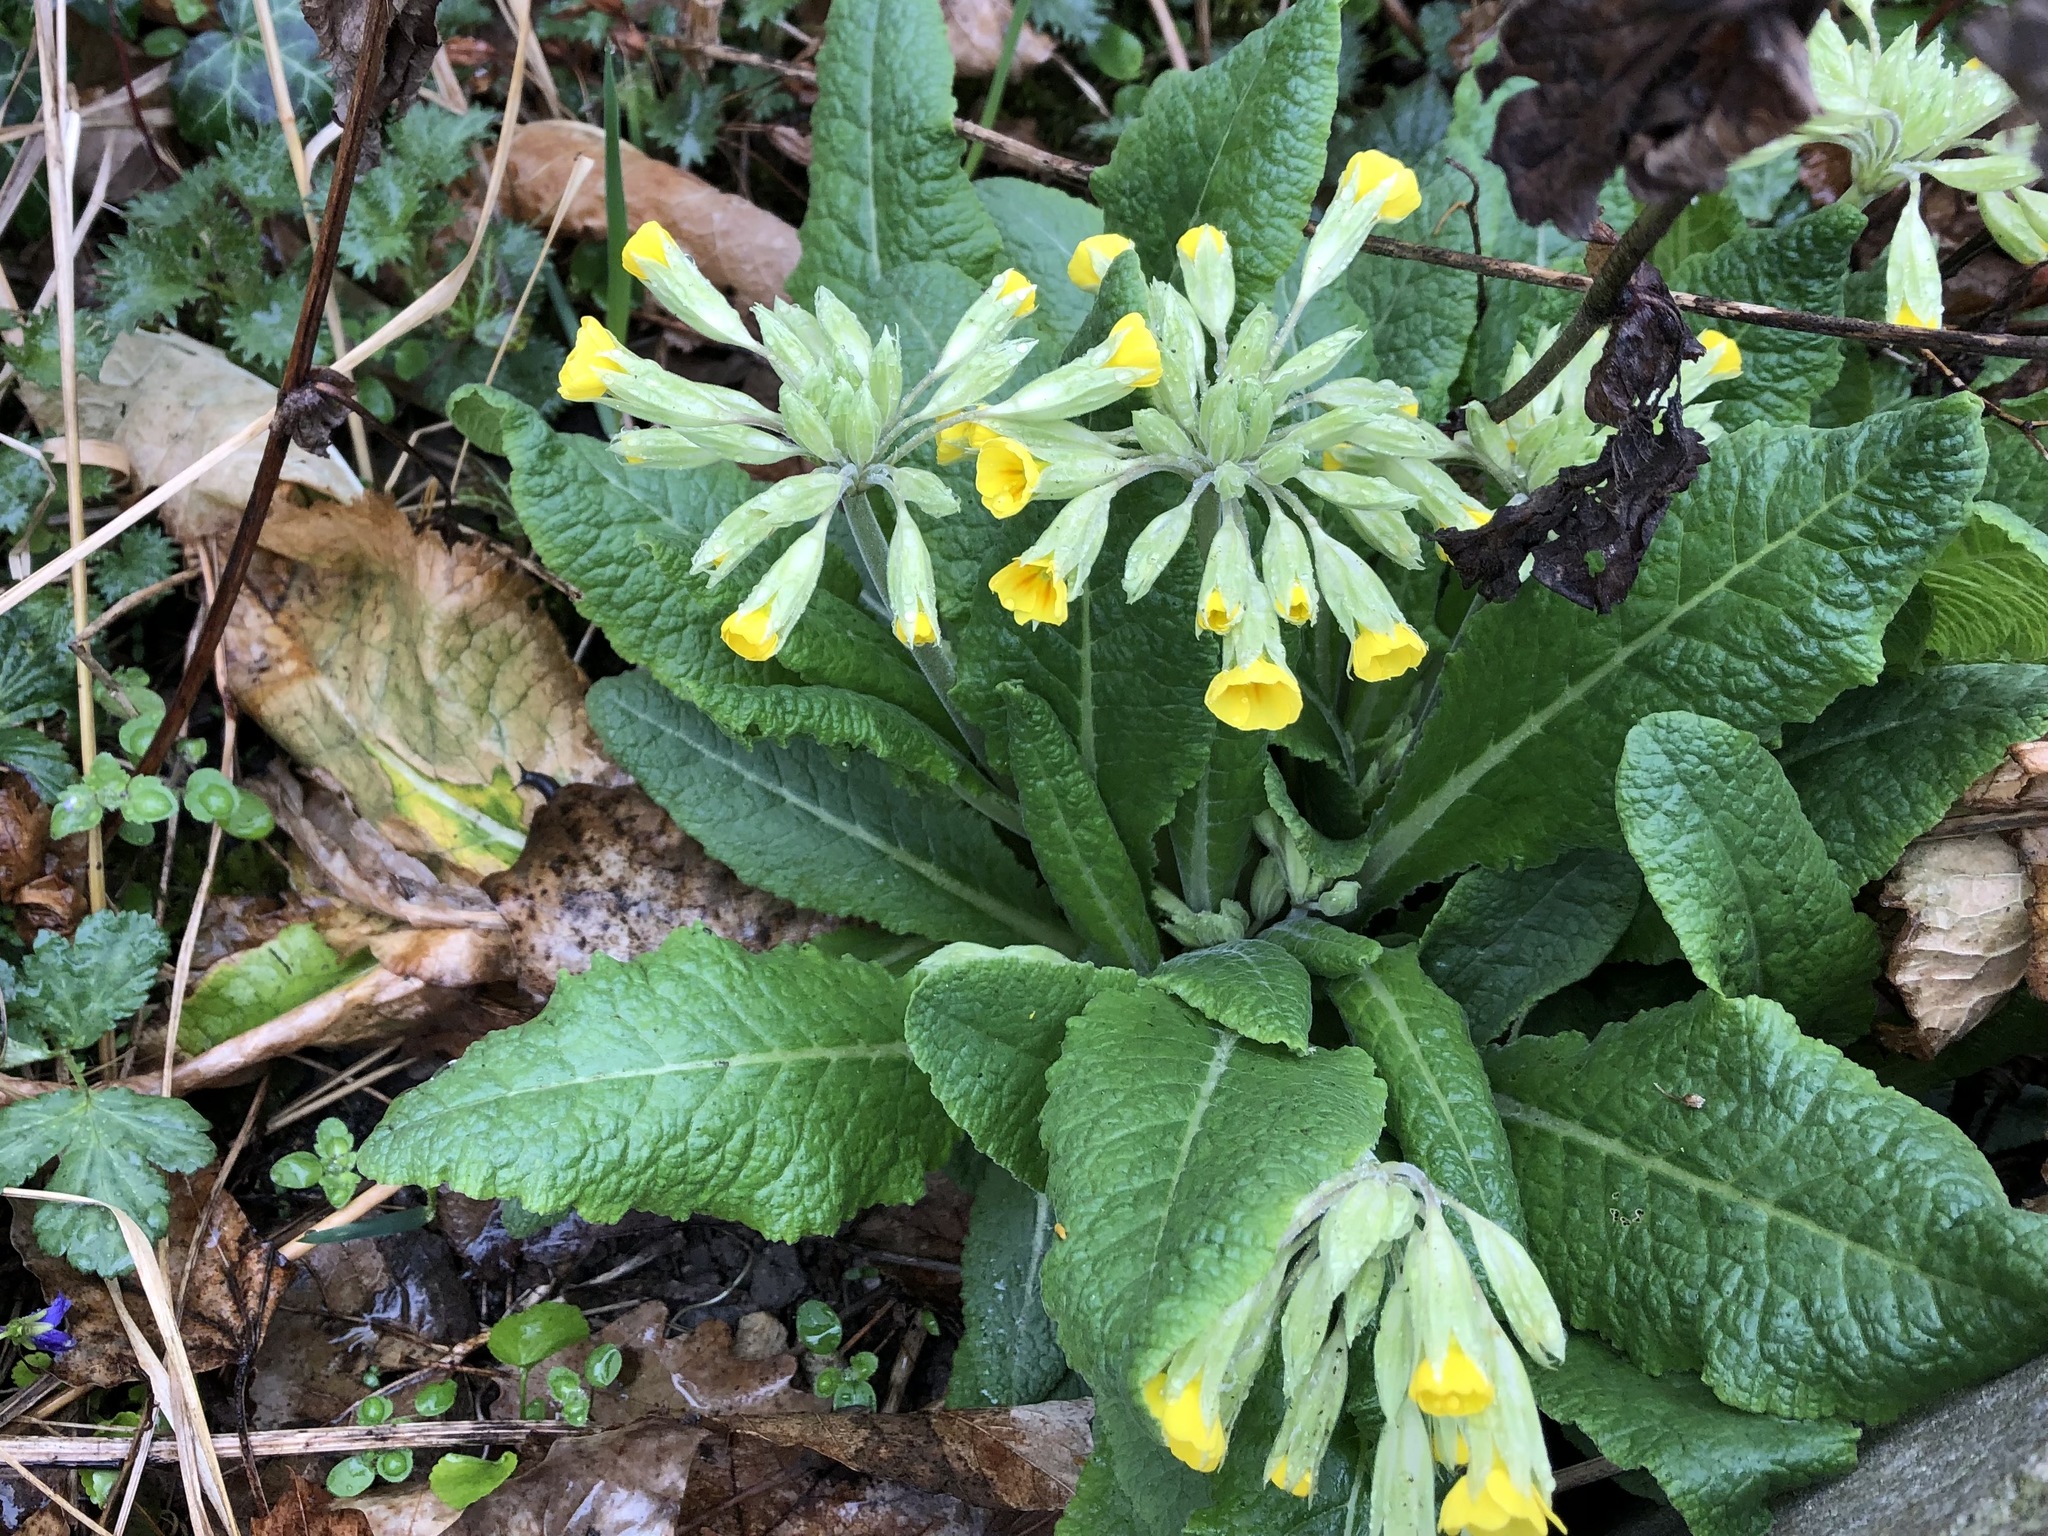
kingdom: Plantae
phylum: Tracheophyta
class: Magnoliopsida
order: Ericales
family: Primulaceae
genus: Primula
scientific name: Primula veris
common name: Cowslip
